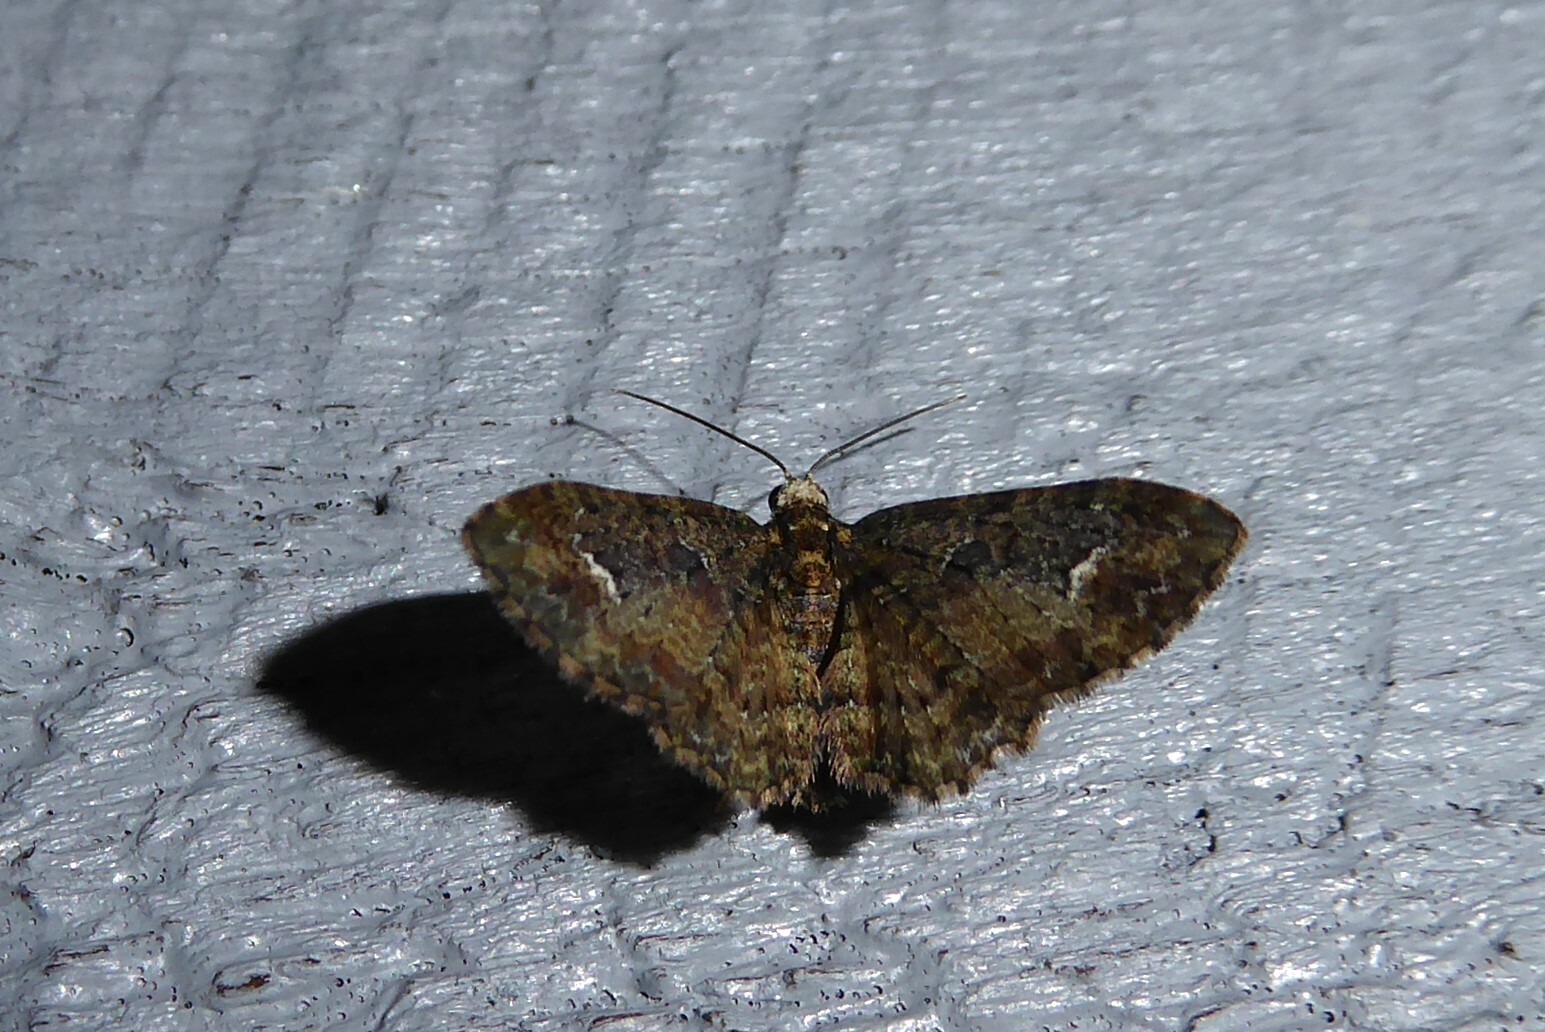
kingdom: Animalia
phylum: Arthropoda
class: Insecta
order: Lepidoptera
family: Geometridae
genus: Pasiphilodes
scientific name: Pasiphilodes testulata
